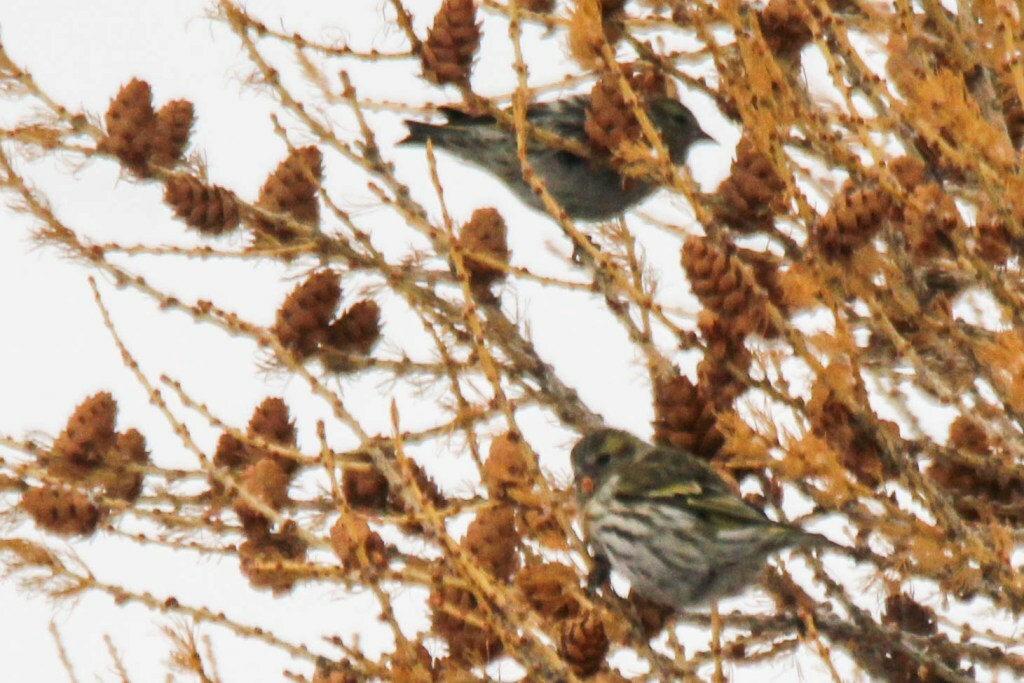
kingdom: Animalia
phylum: Chordata
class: Aves
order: Passeriformes
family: Fringillidae
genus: Spinus
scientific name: Spinus spinus
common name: Eurasian siskin
